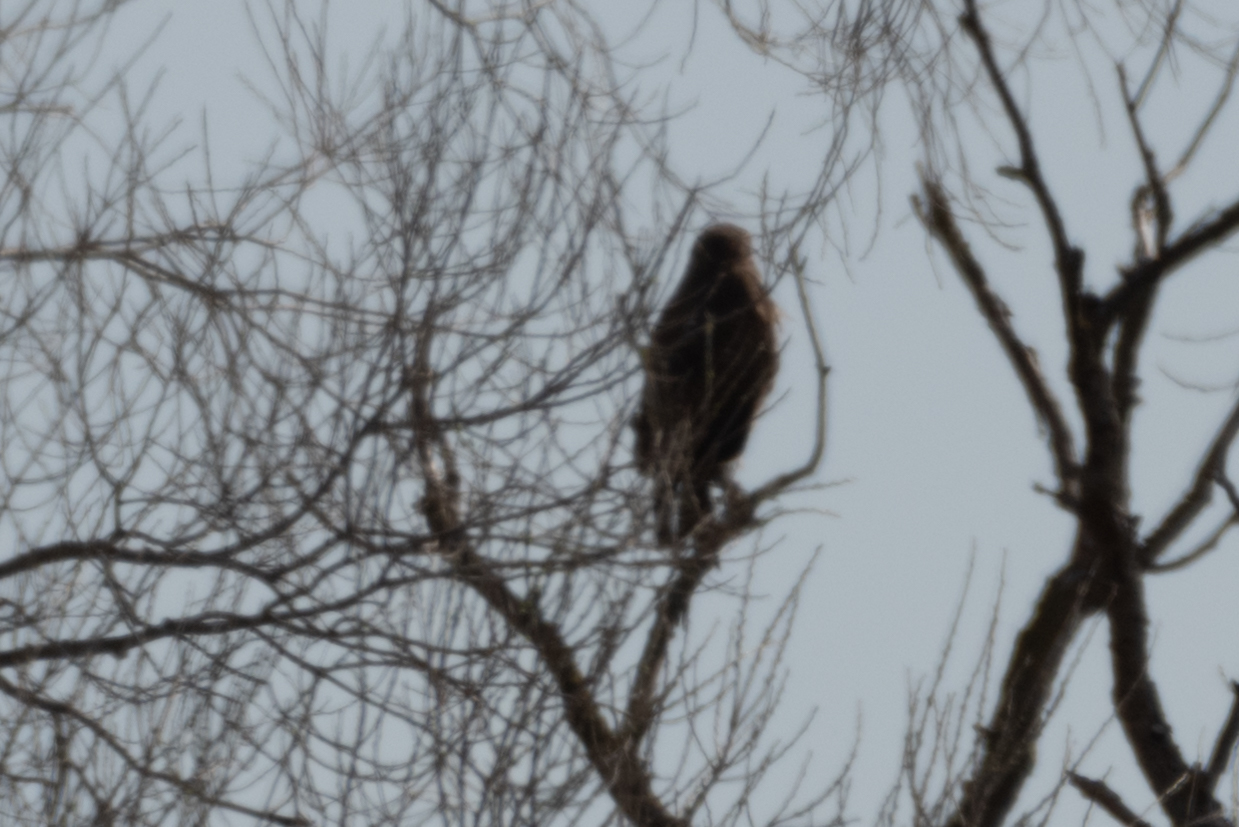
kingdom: Animalia
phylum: Chordata
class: Aves
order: Accipitriformes
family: Accipitridae
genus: Buteo
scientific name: Buteo jamaicensis
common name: Red-tailed hawk
